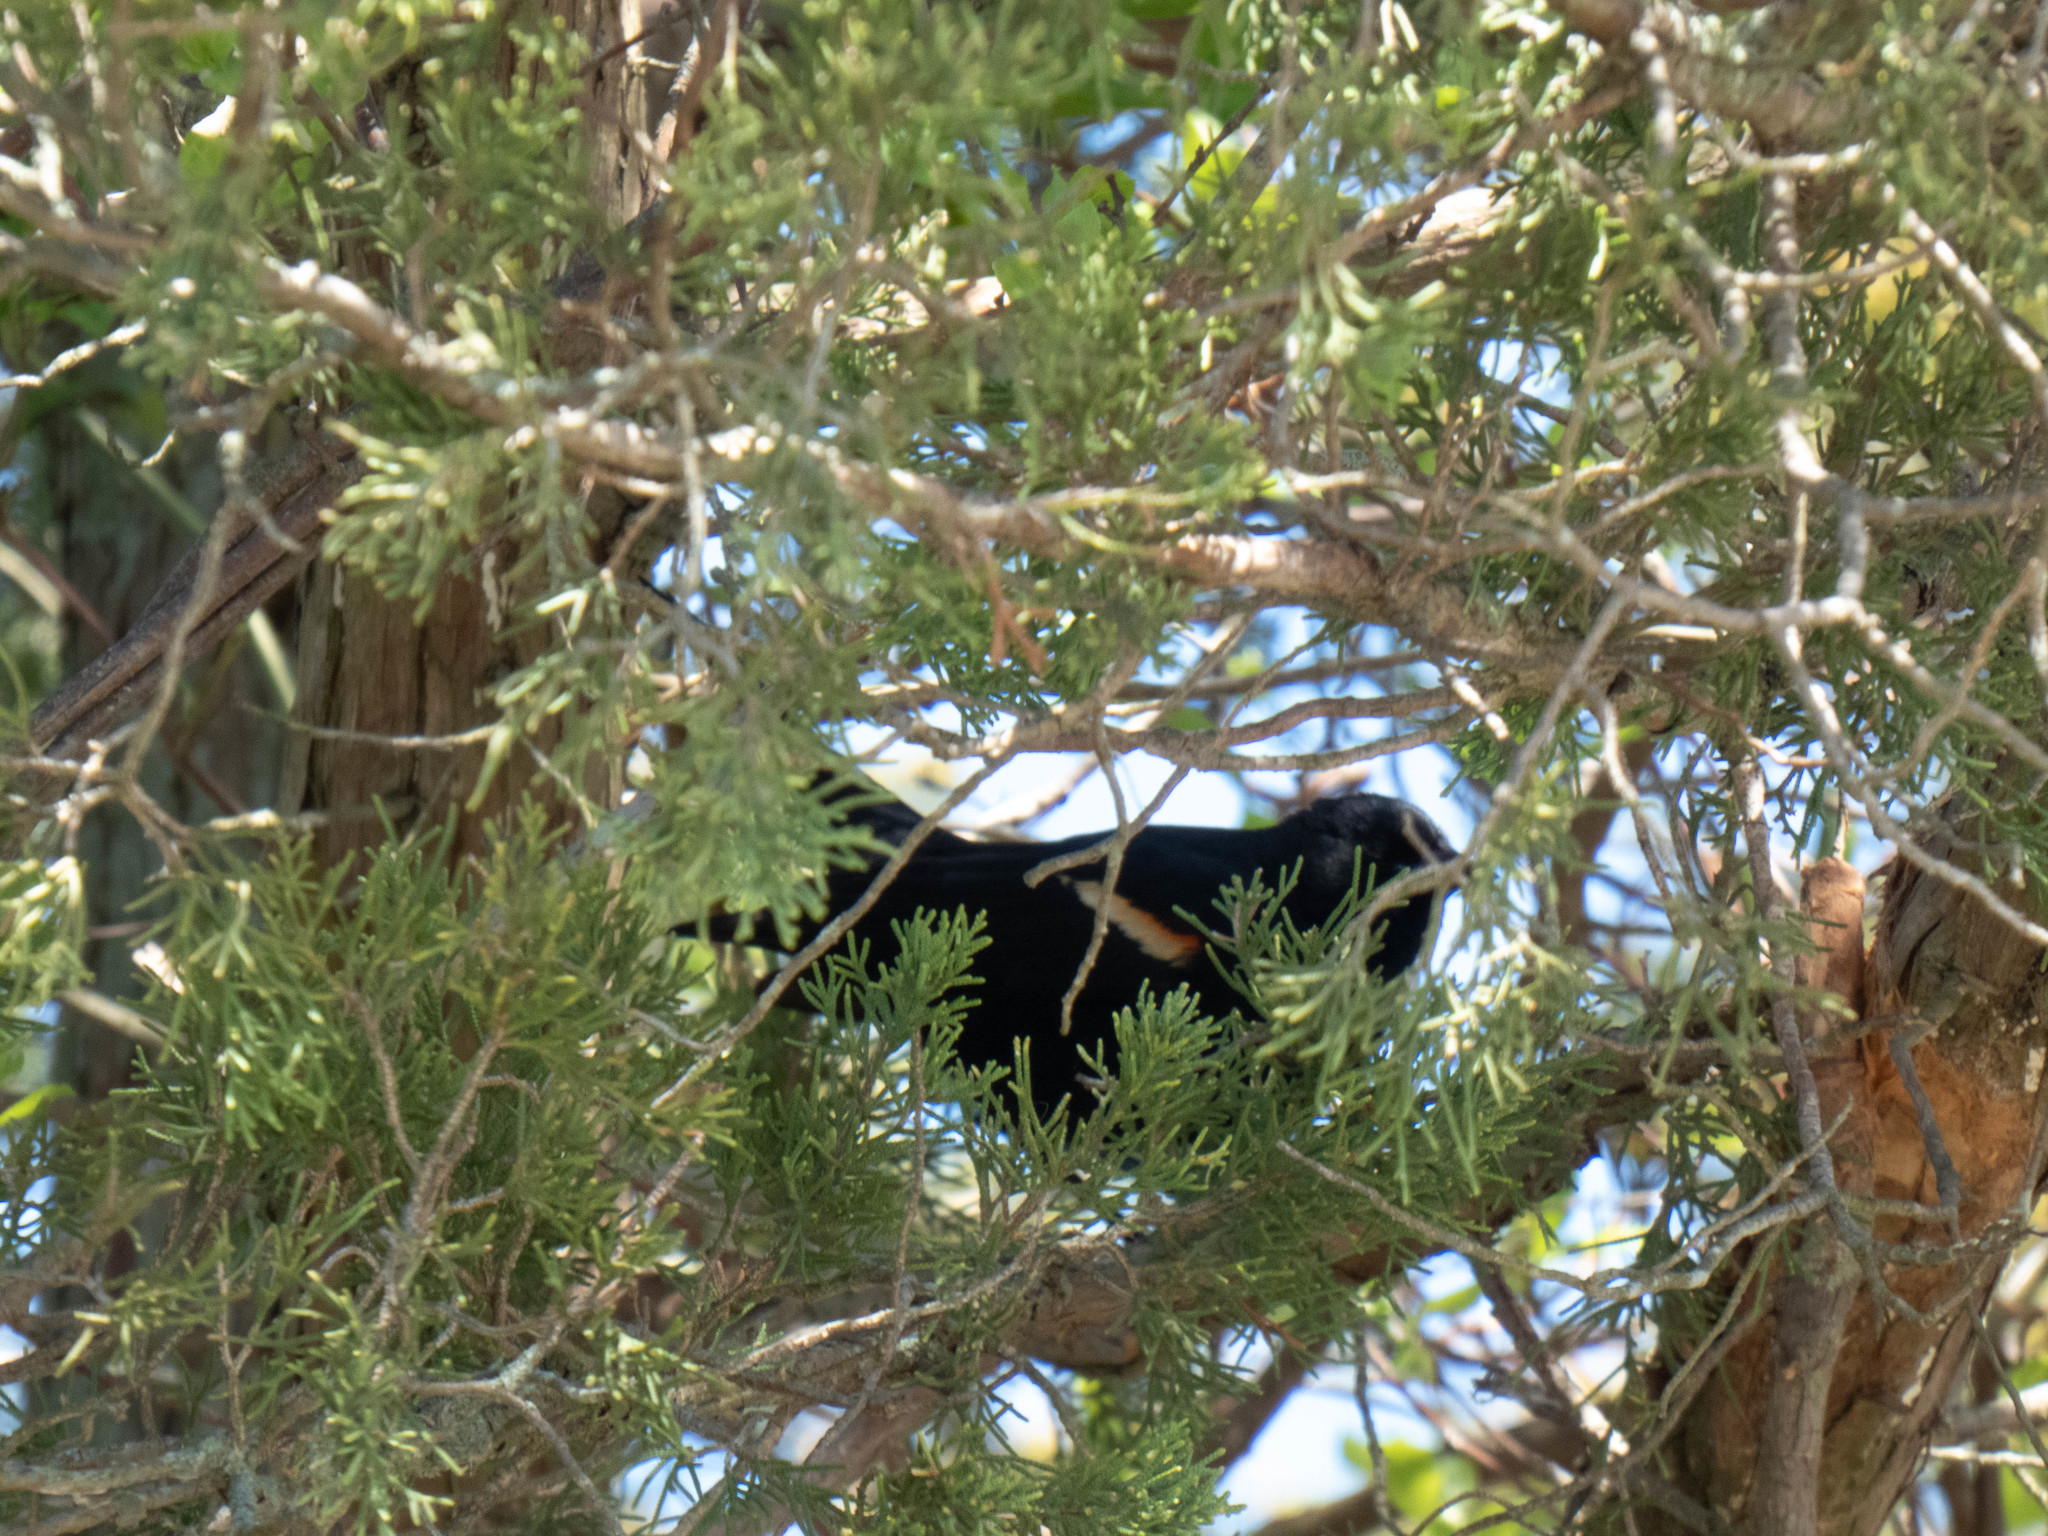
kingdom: Animalia
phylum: Chordata
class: Aves
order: Passeriformes
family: Icteridae
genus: Agelaius
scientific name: Agelaius phoeniceus
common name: Red-winged blackbird
